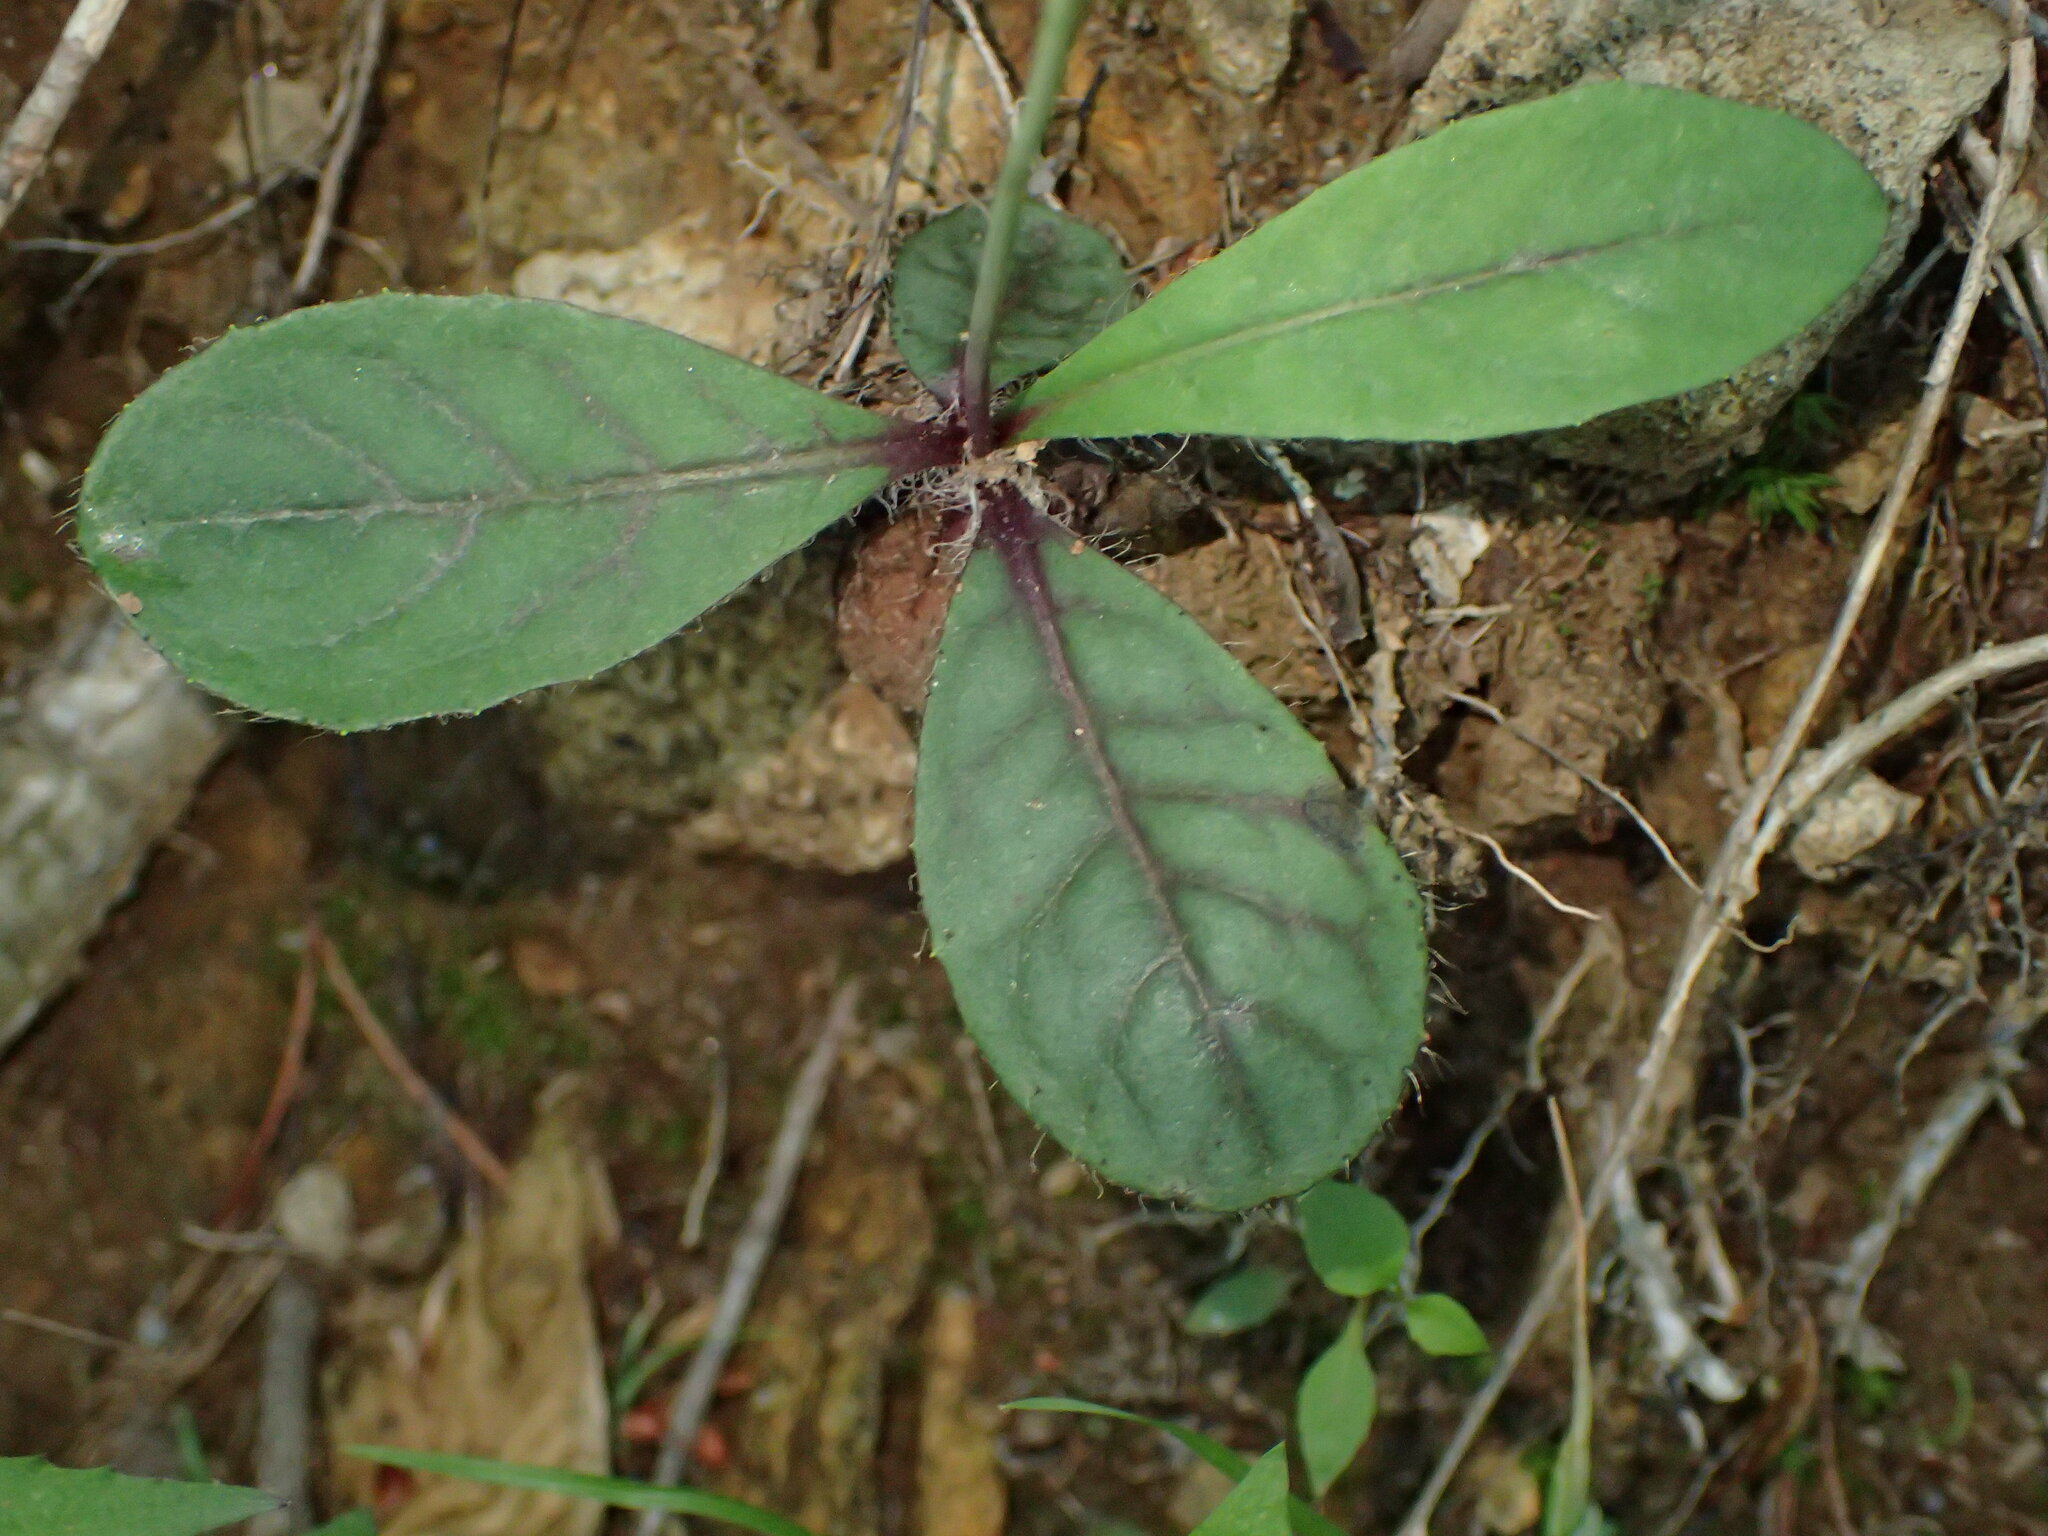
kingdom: Plantae
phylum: Tracheophyta
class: Magnoliopsida
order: Asterales
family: Asteraceae
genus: Hieracium
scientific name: Hieracium venosum
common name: Rattlesnake hawkweed
